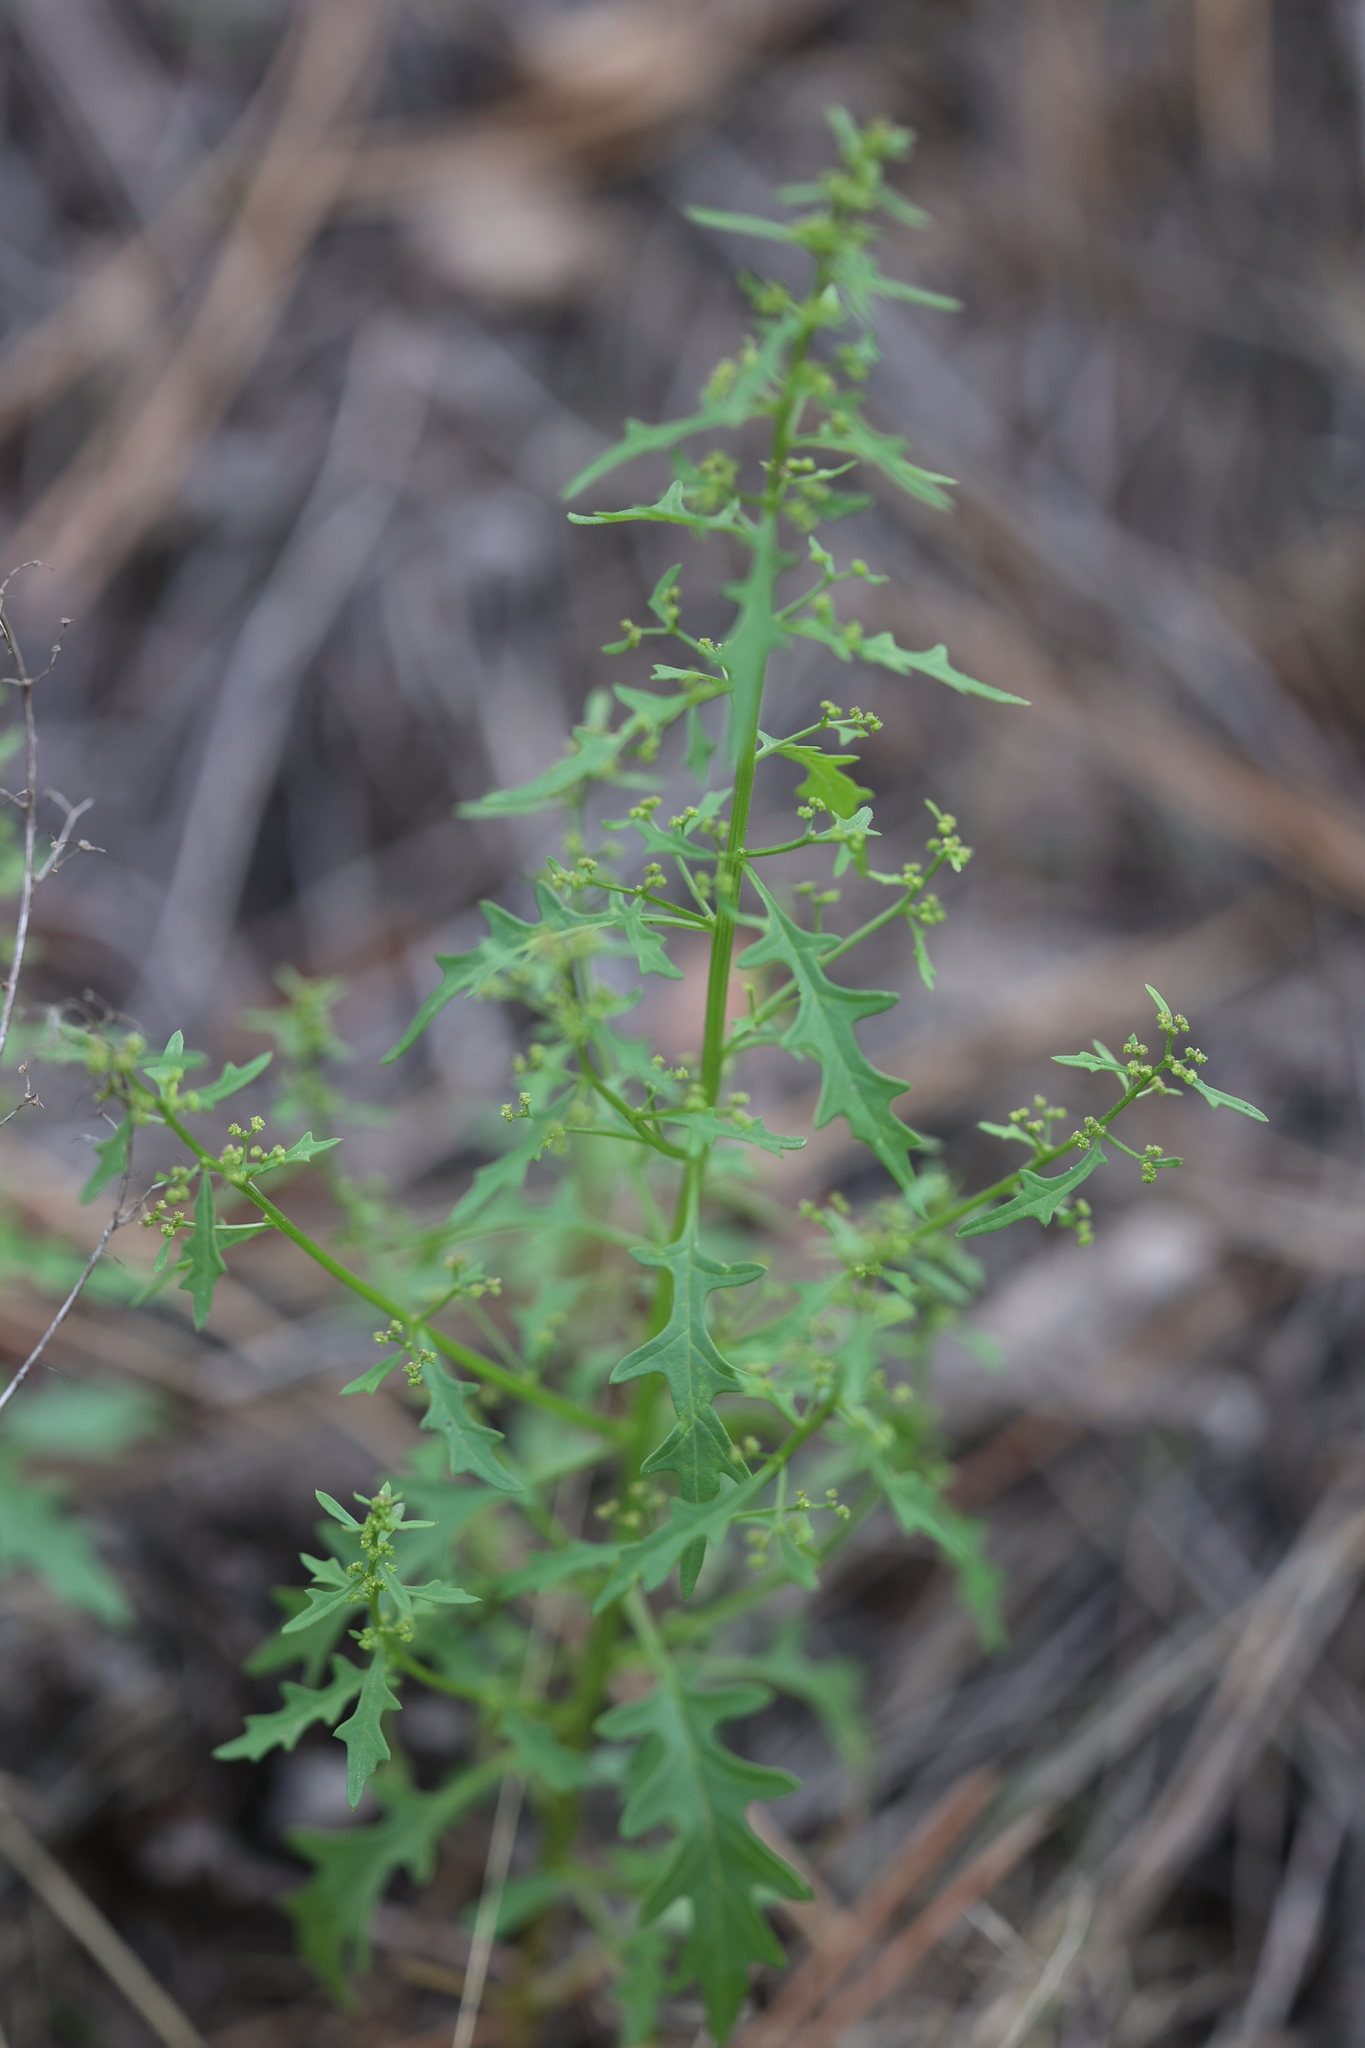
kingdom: Plantae
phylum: Tracheophyta
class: Magnoliopsida
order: Caryophyllales
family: Amaranthaceae
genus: Dysphania
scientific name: Dysphania incisa
